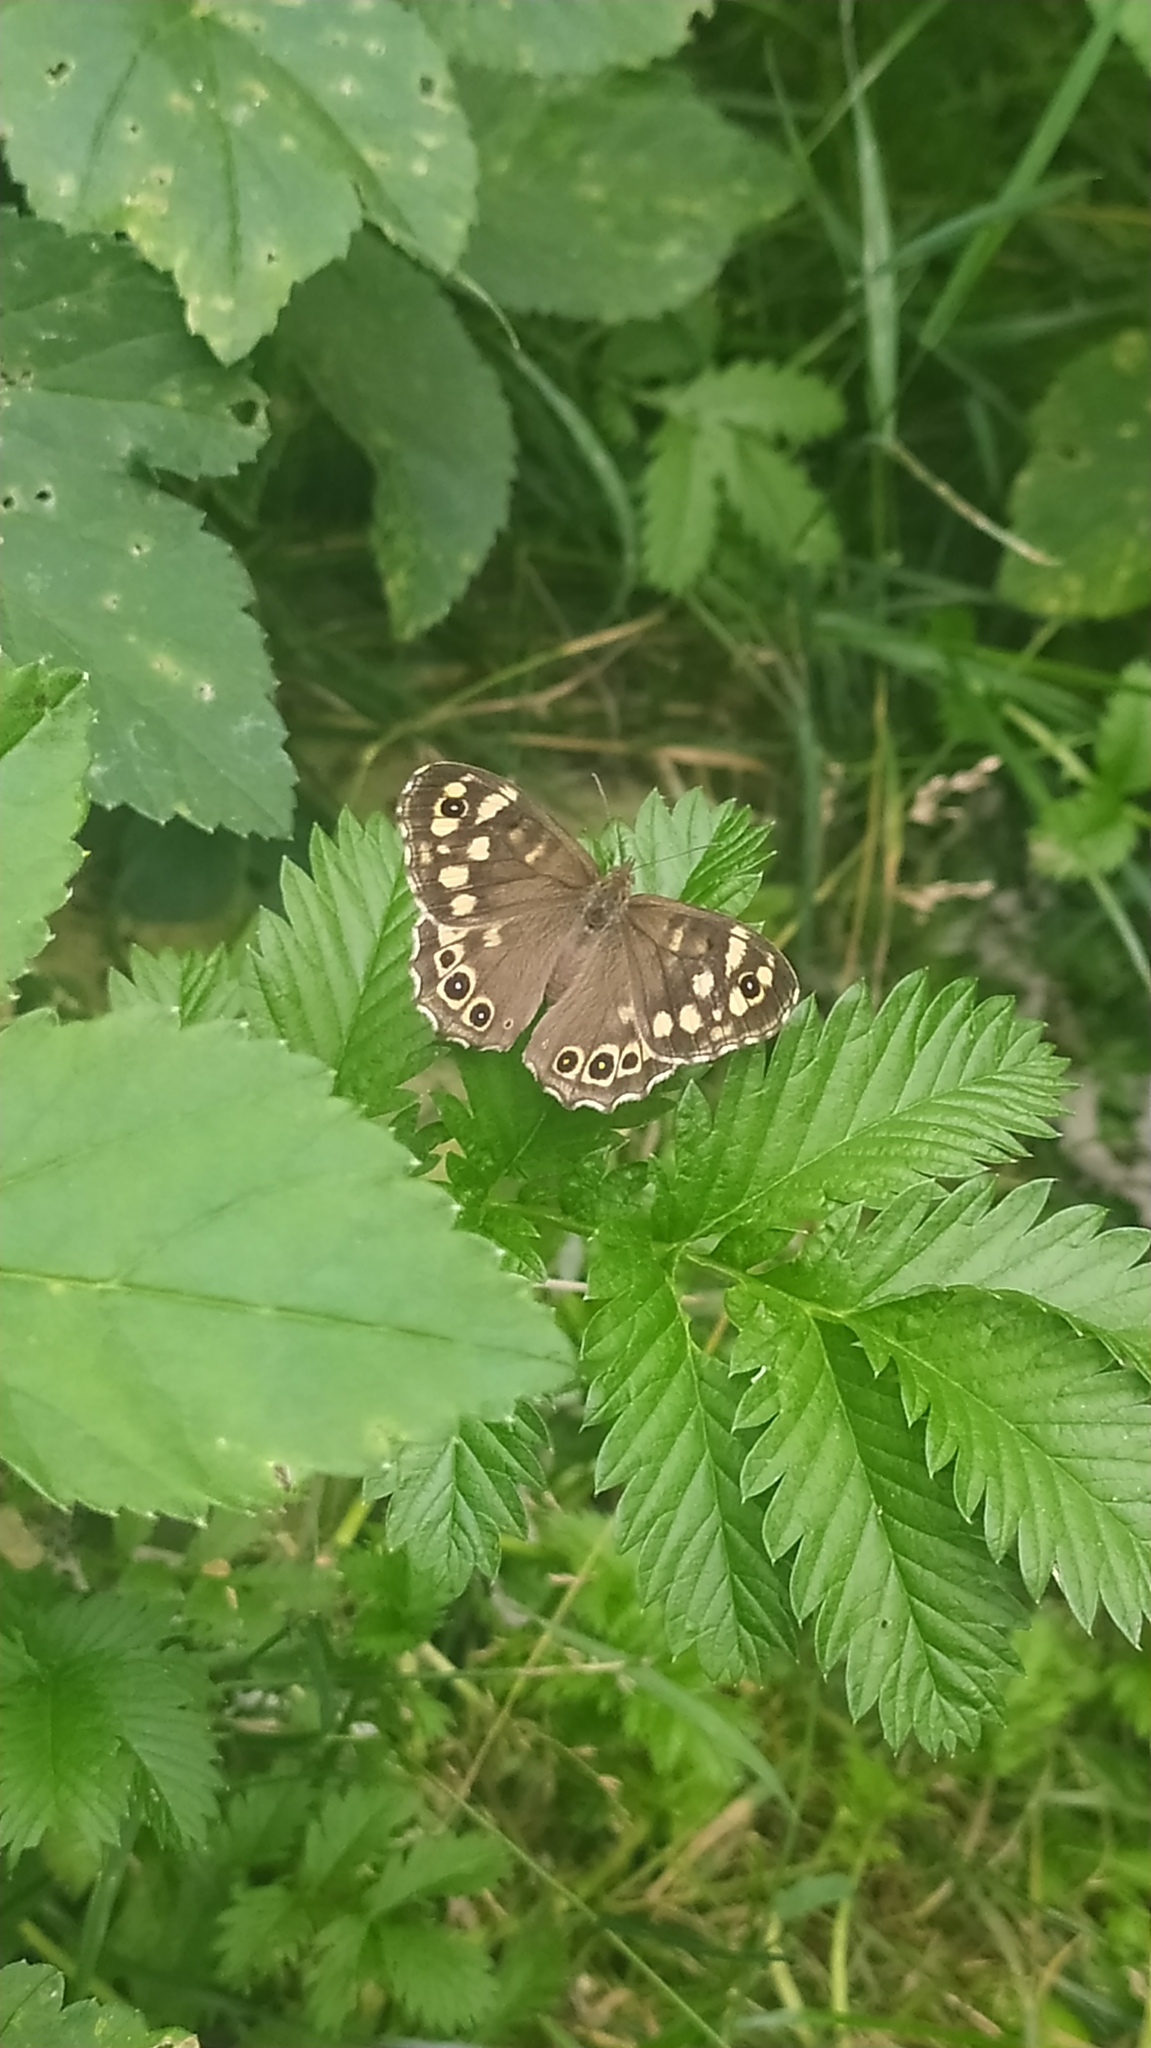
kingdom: Animalia
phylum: Arthropoda
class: Insecta
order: Lepidoptera
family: Nymphalidae
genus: Pararge
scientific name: Pararge aegeria
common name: Speckled wood
